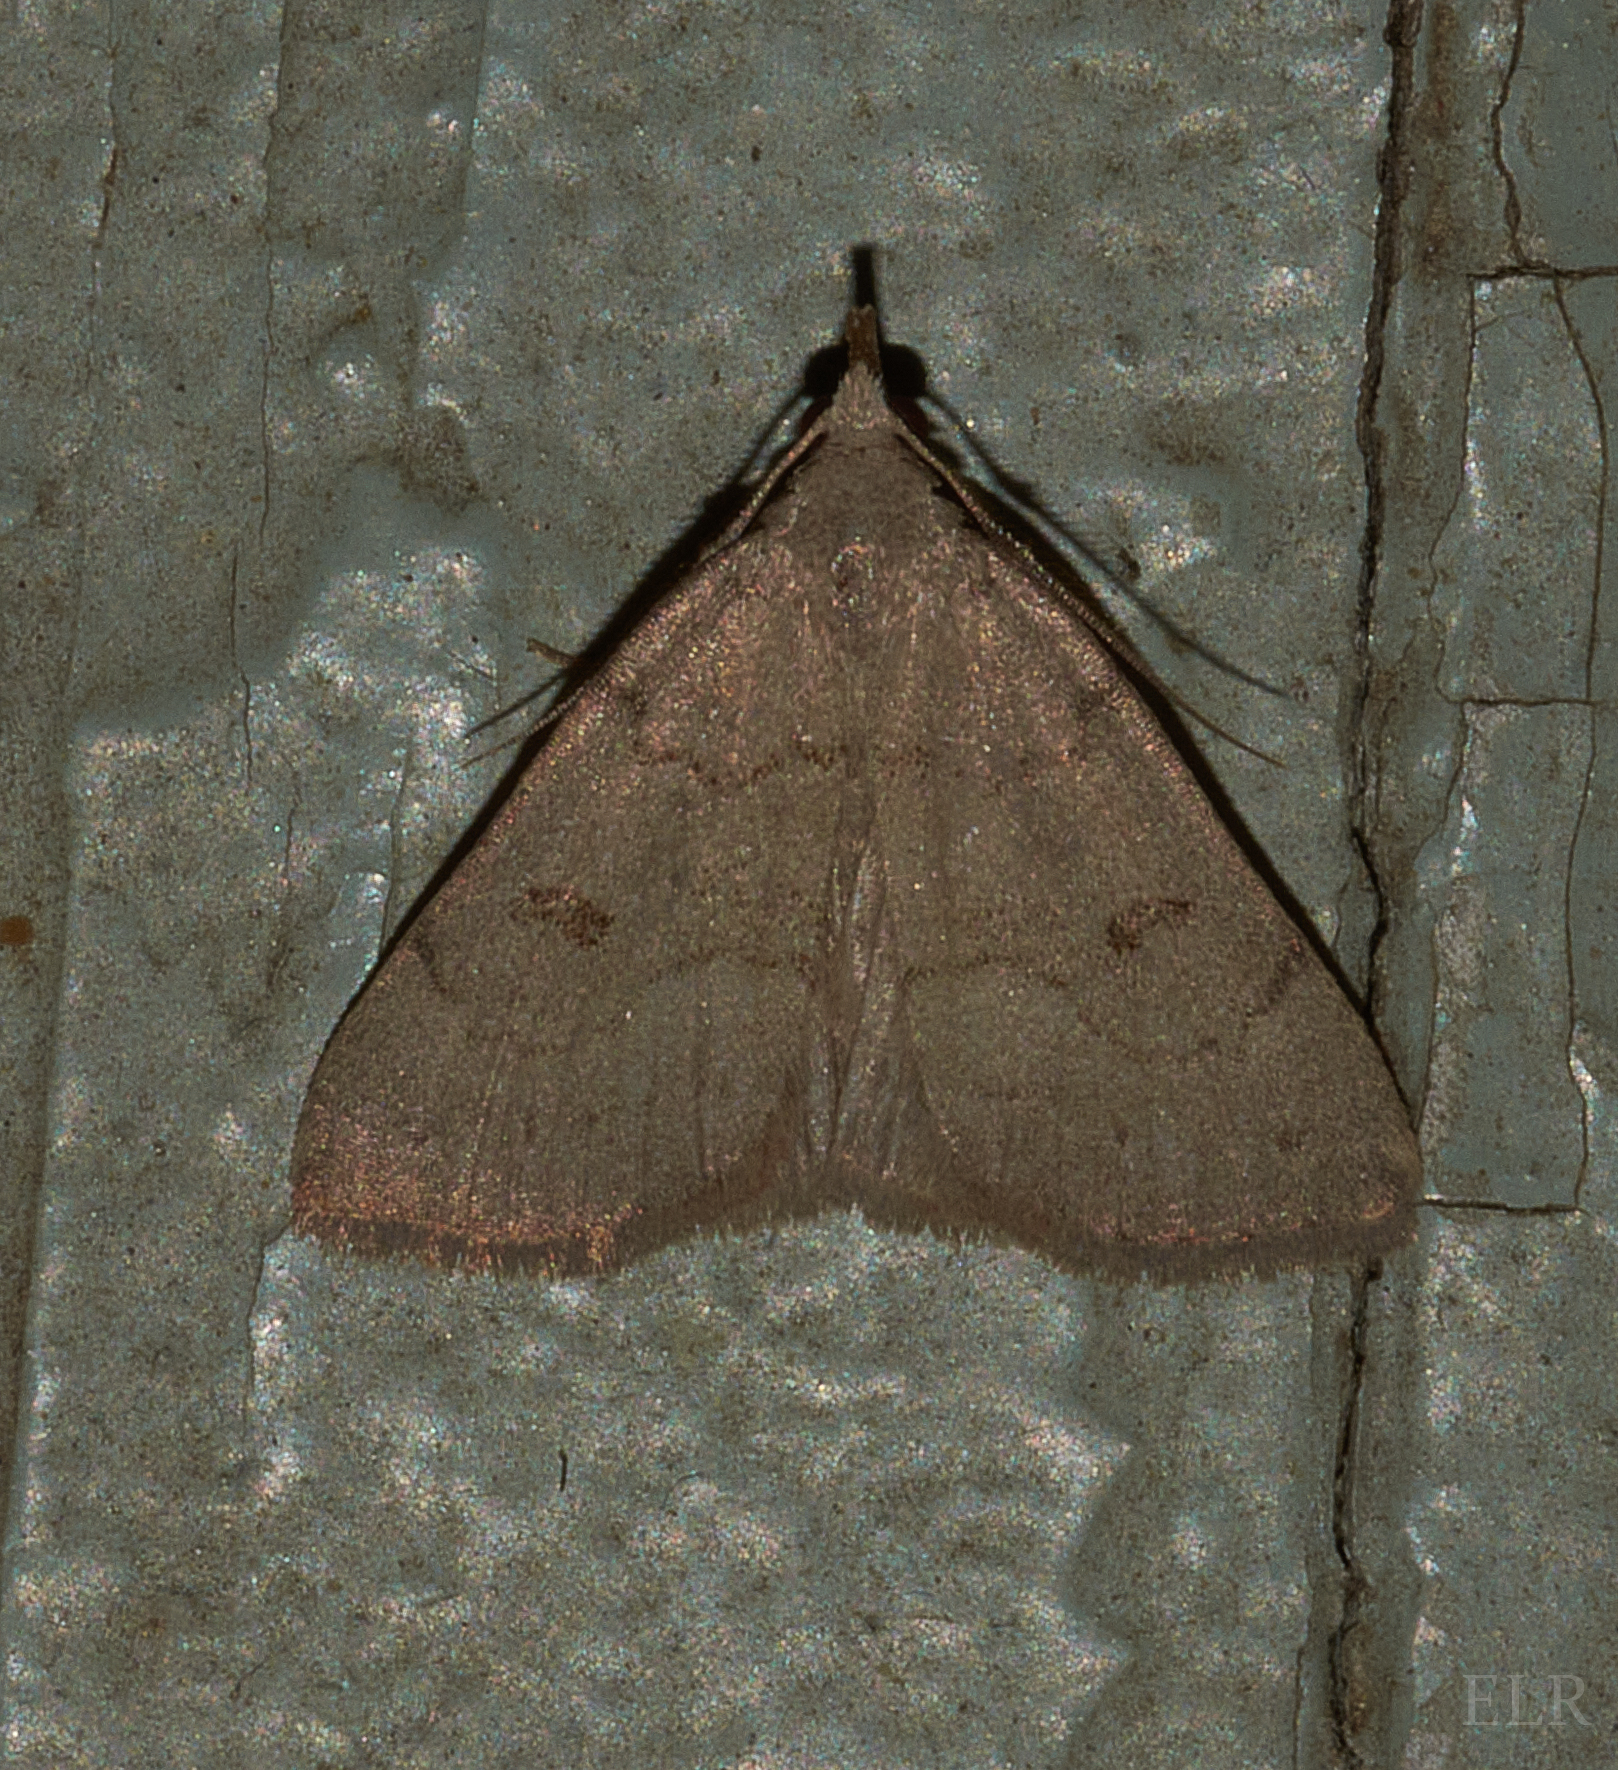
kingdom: Animalia
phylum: Arthropoda
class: Insecta
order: Lepidoptera
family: Erebidae
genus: Macrochilo
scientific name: Macrochilo morbidalis
